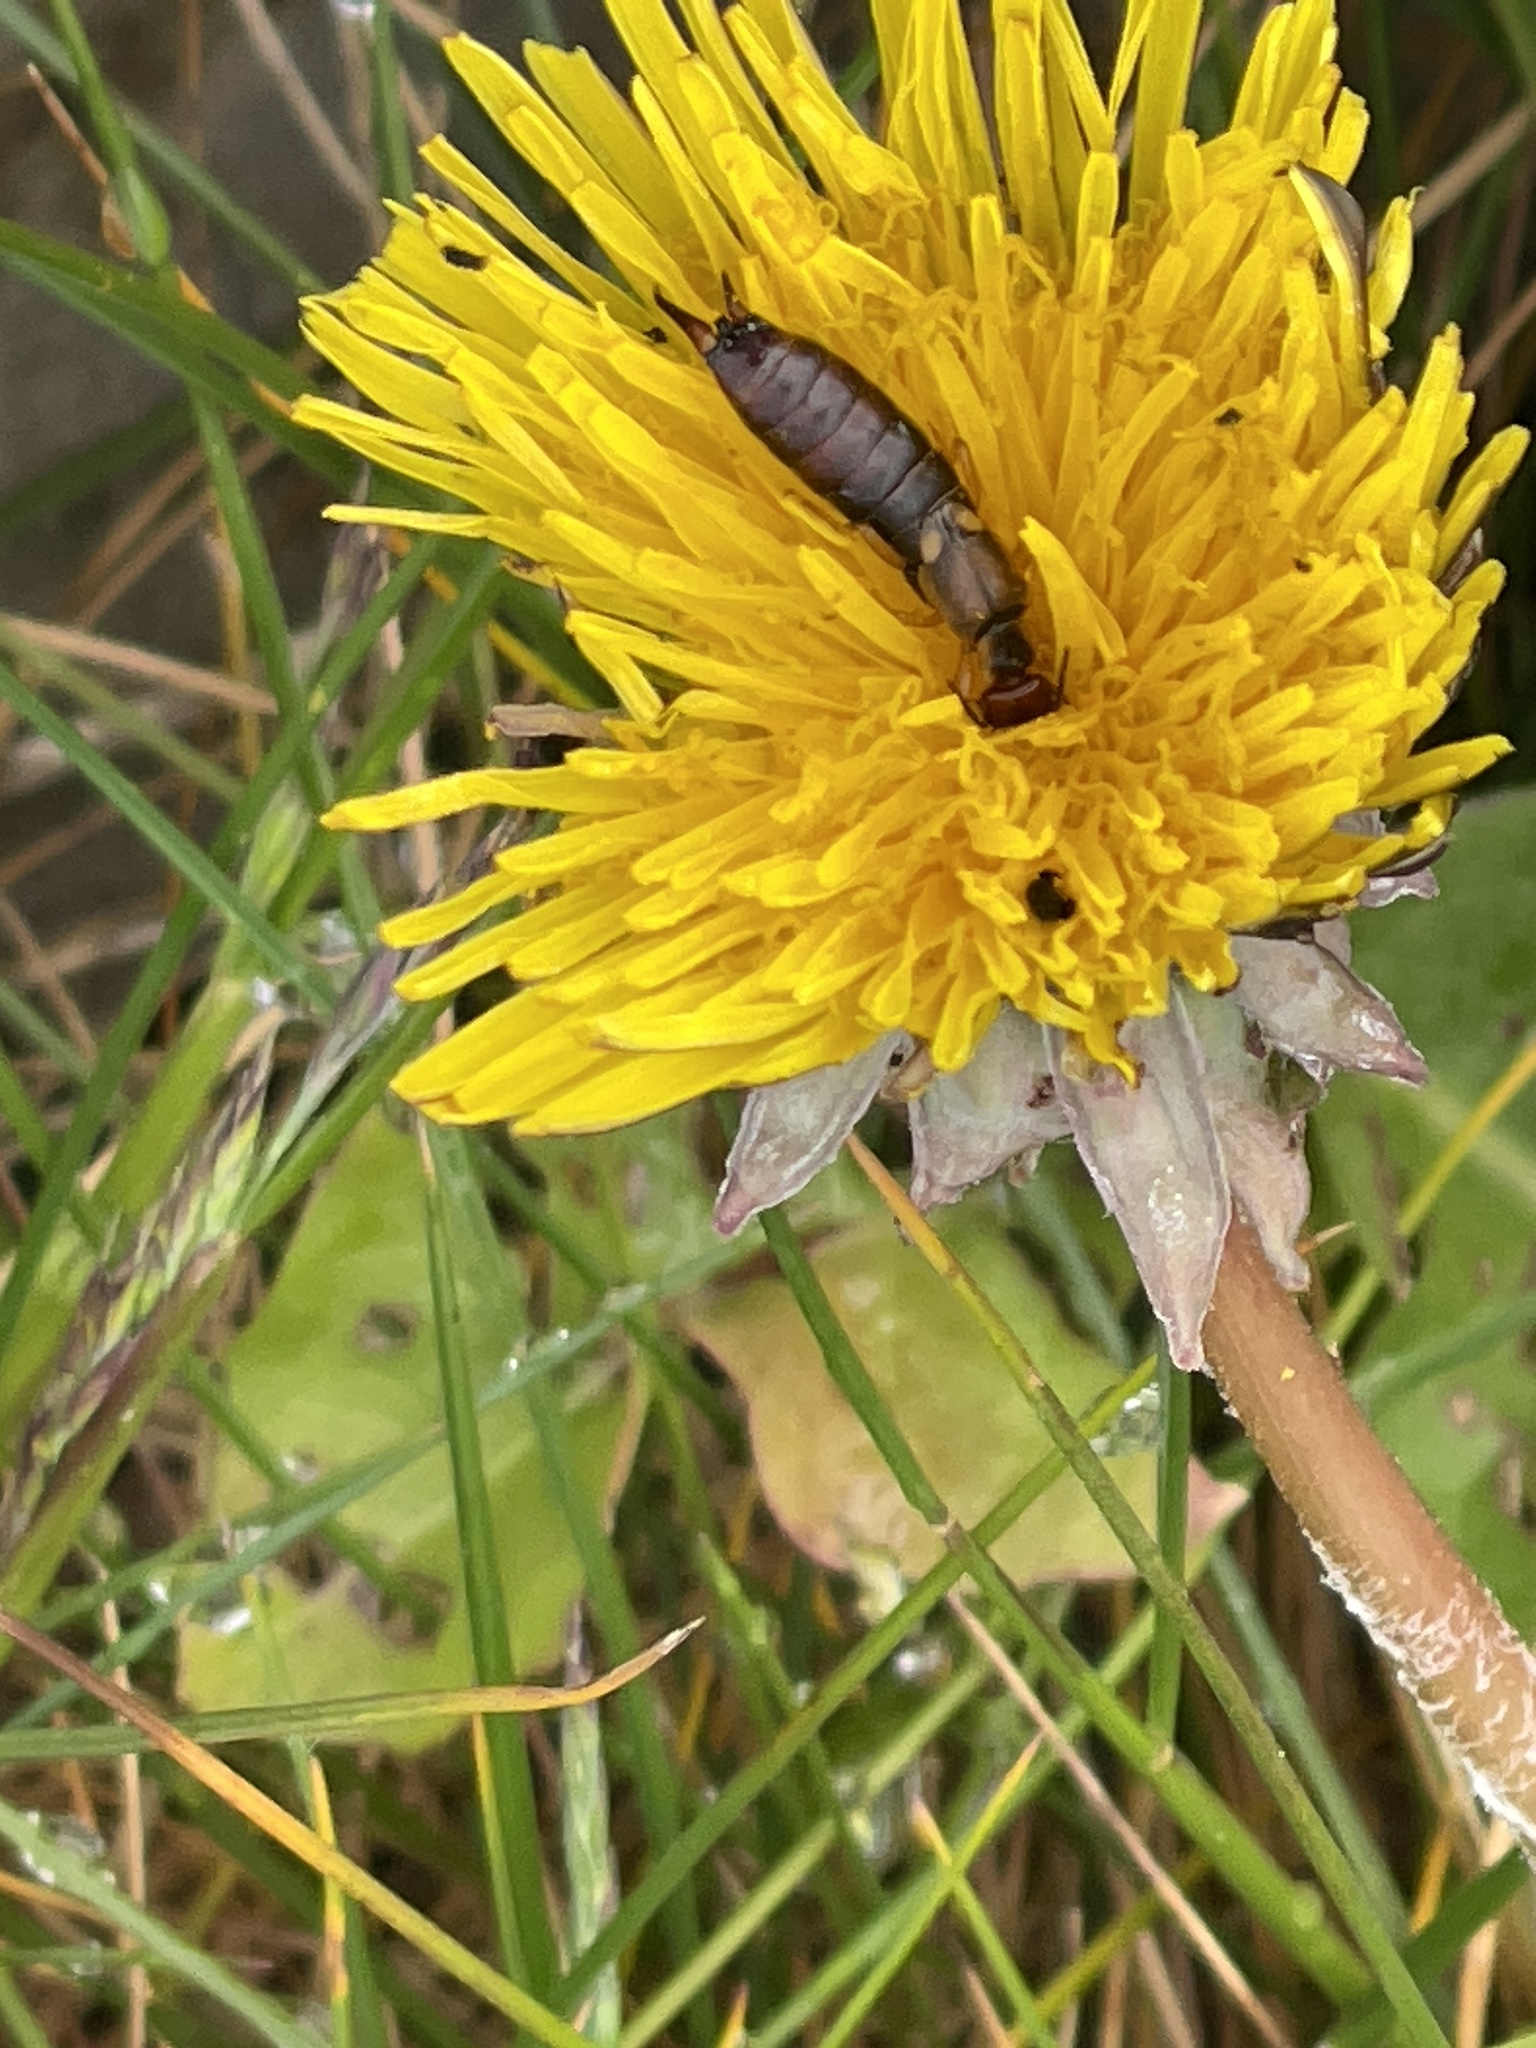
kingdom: Animalia
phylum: Arthropoda
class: Insecta
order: Dermaptera
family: Forficulidae
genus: Forficula
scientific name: Forficula
